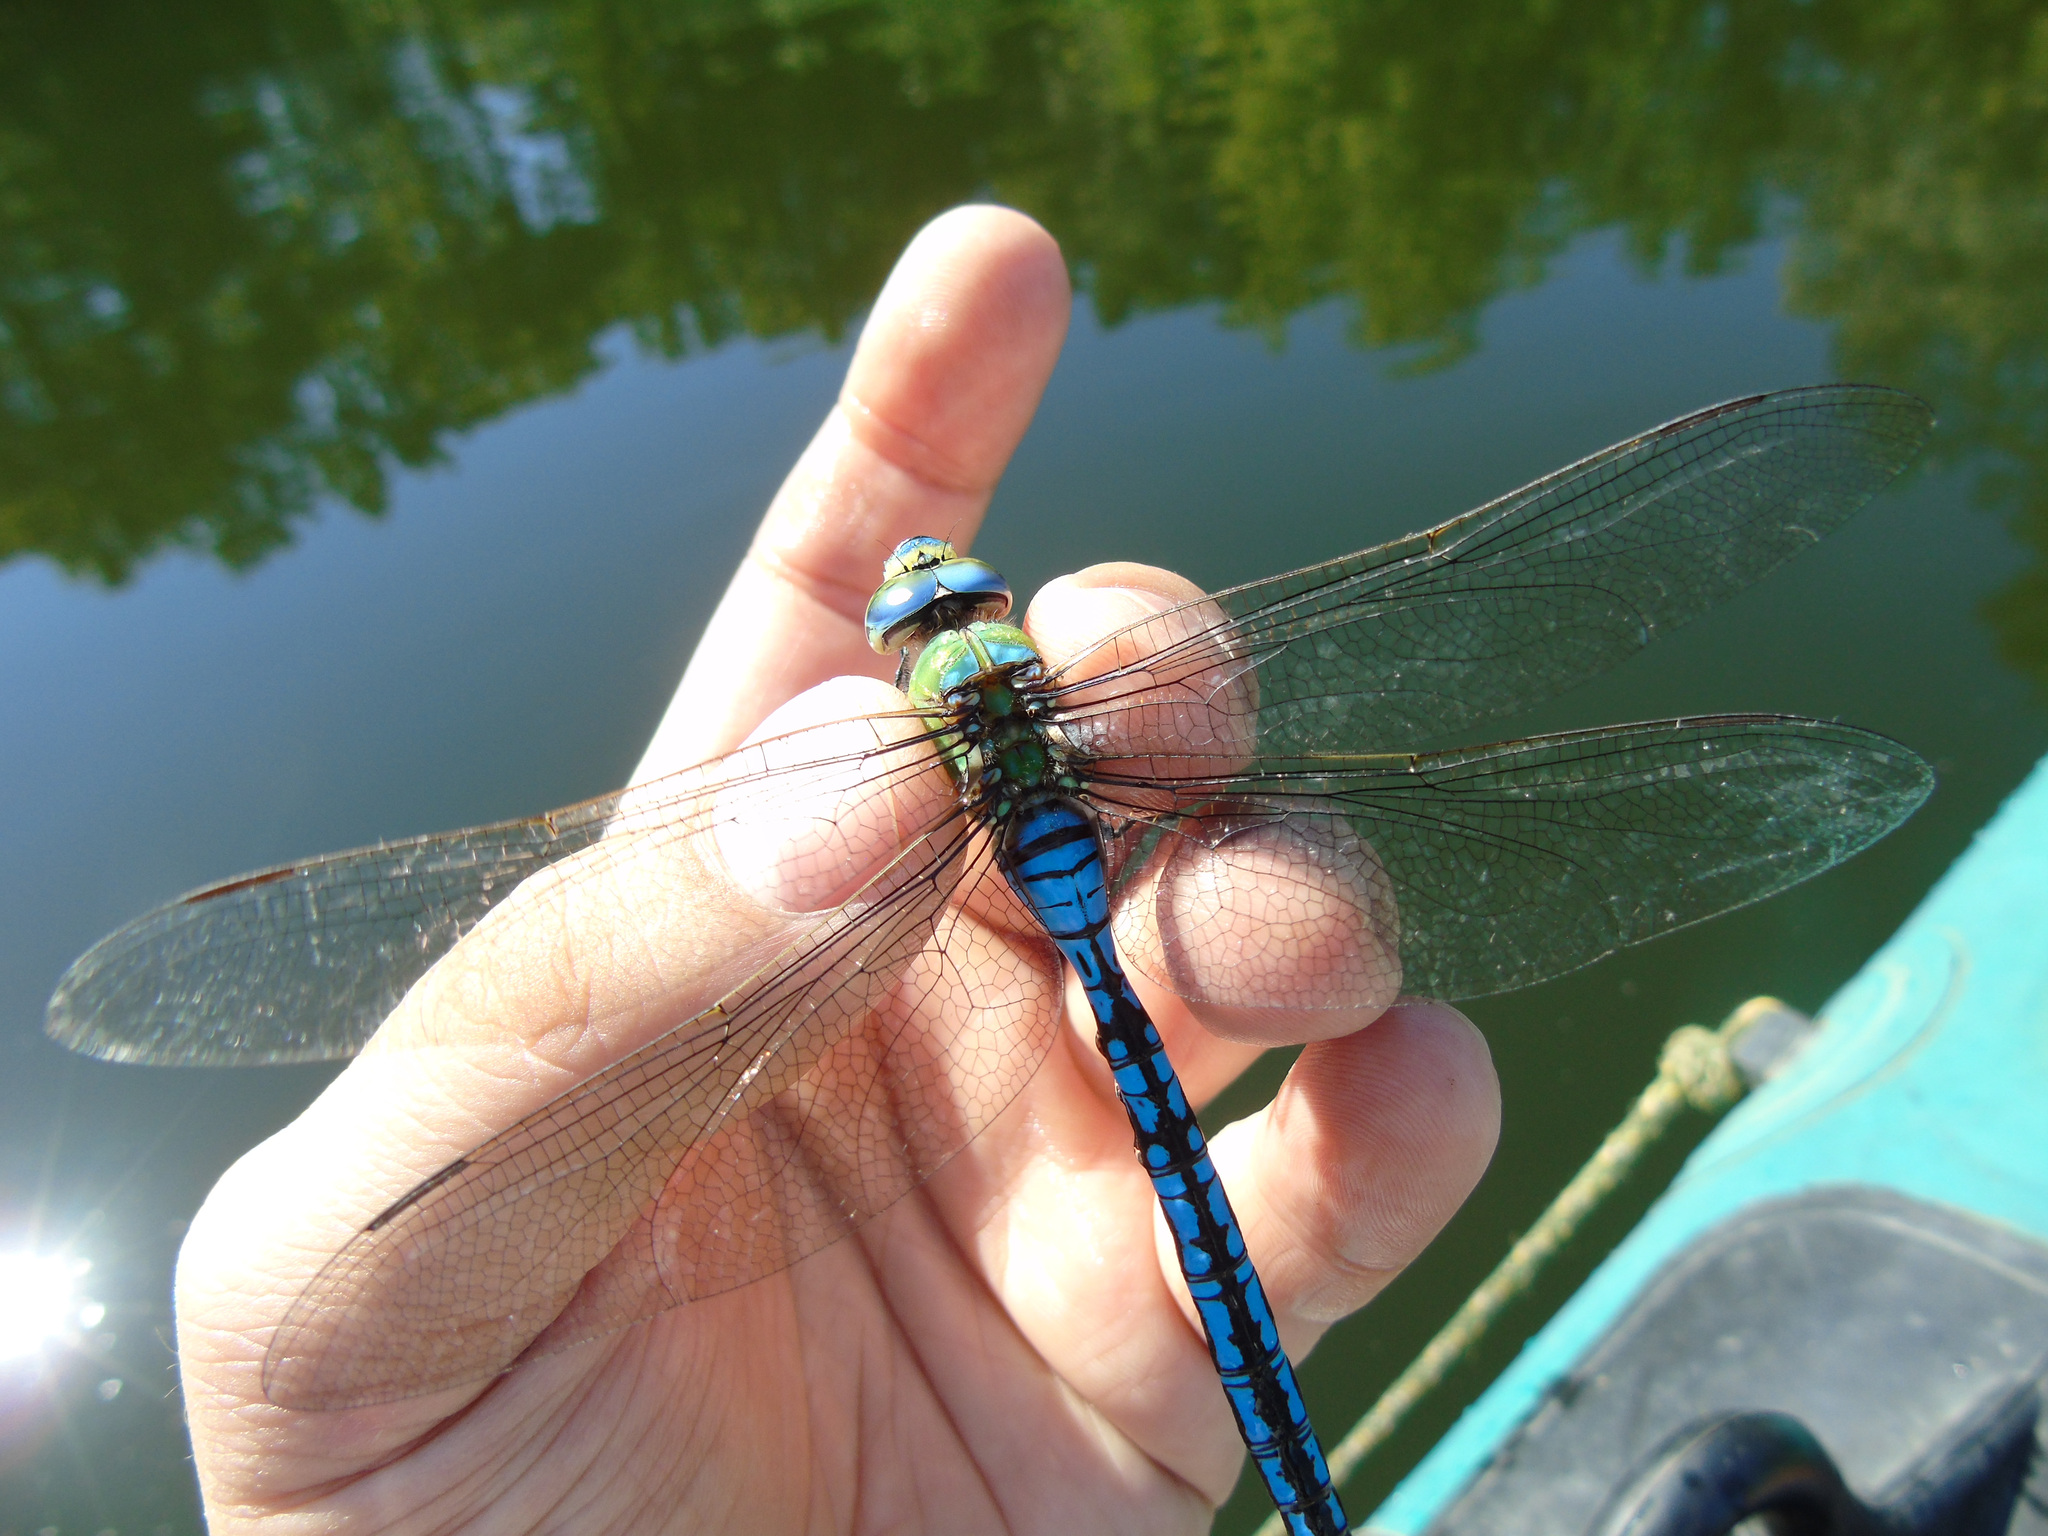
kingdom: Animalia
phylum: Arthropoda
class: Insecta
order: Odonata
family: Aeshnidae
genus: Anax
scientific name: Anax imperator
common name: Emperor dragonfly
